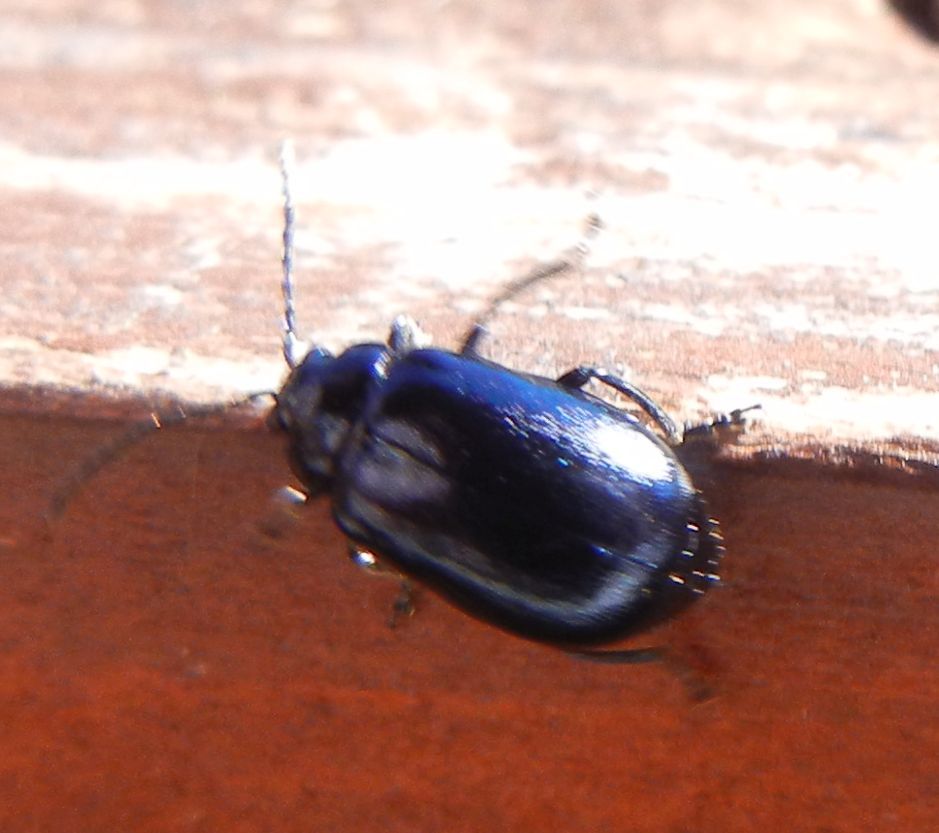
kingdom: Animalia
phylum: Arthropoda
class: Insecta
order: Coleoptera
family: Chrysomelidae
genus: Agelastica
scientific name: Agelastica alni
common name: Alder leaf beetle
